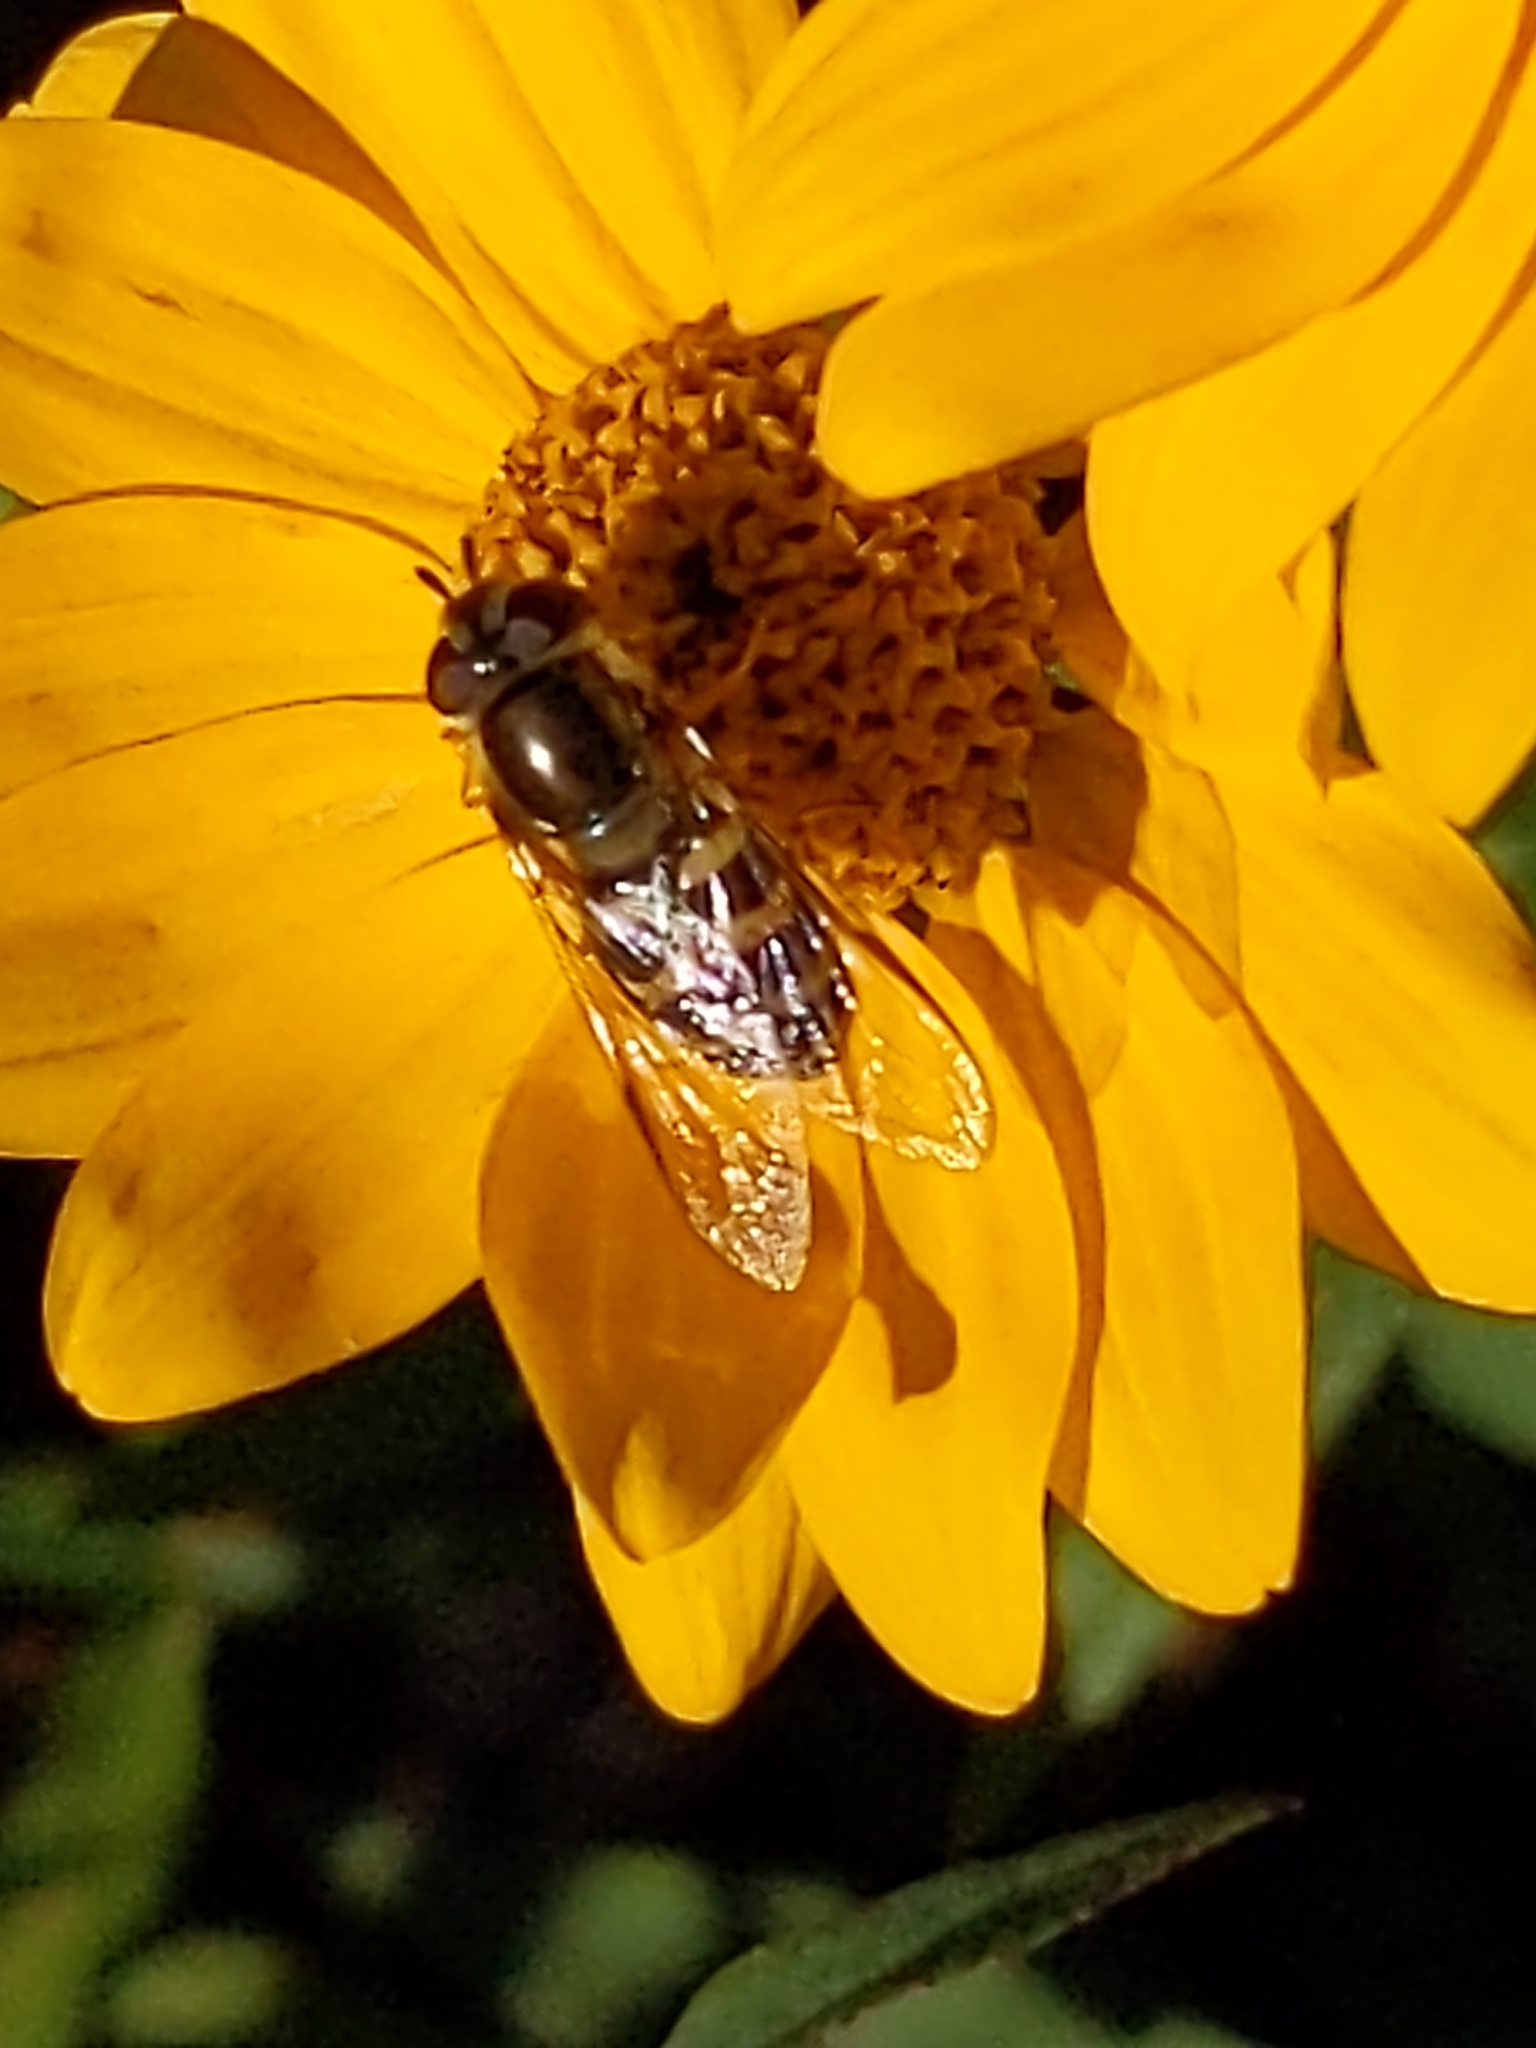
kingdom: Animalia
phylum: Arthropoda
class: Insecta
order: Diptera
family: Syrphidae
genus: Lapposyrphus
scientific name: Lapposyrphus lapponicus
